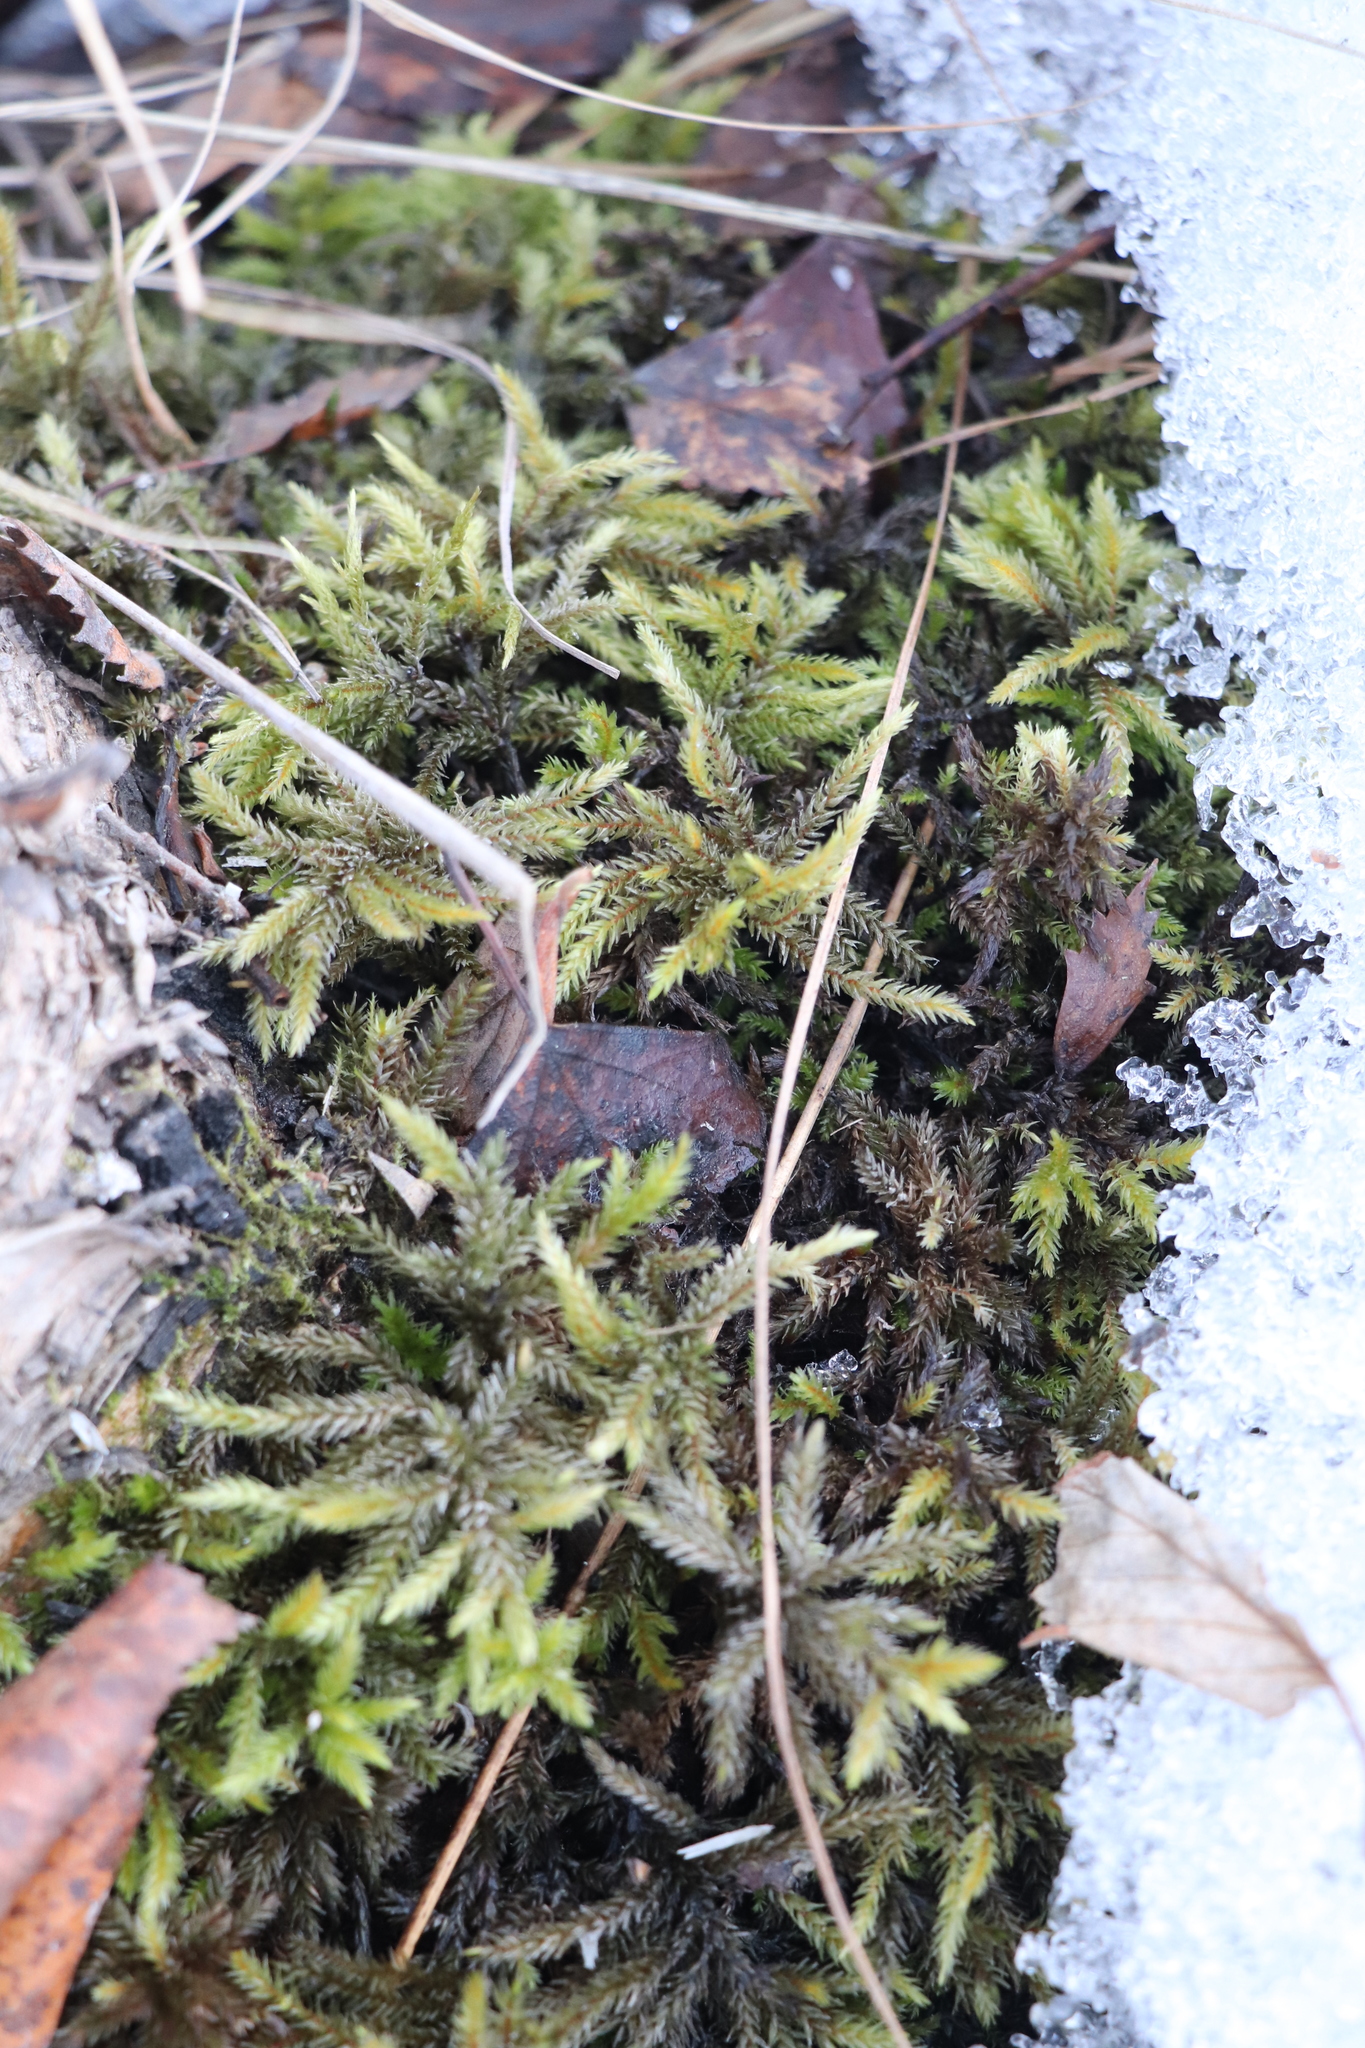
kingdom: Plantae
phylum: Bryophyta
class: Bryopsida
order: Hypnales
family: Climaciaceae
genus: Climacium
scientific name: Climacium dendroides
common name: Northern tree moss
